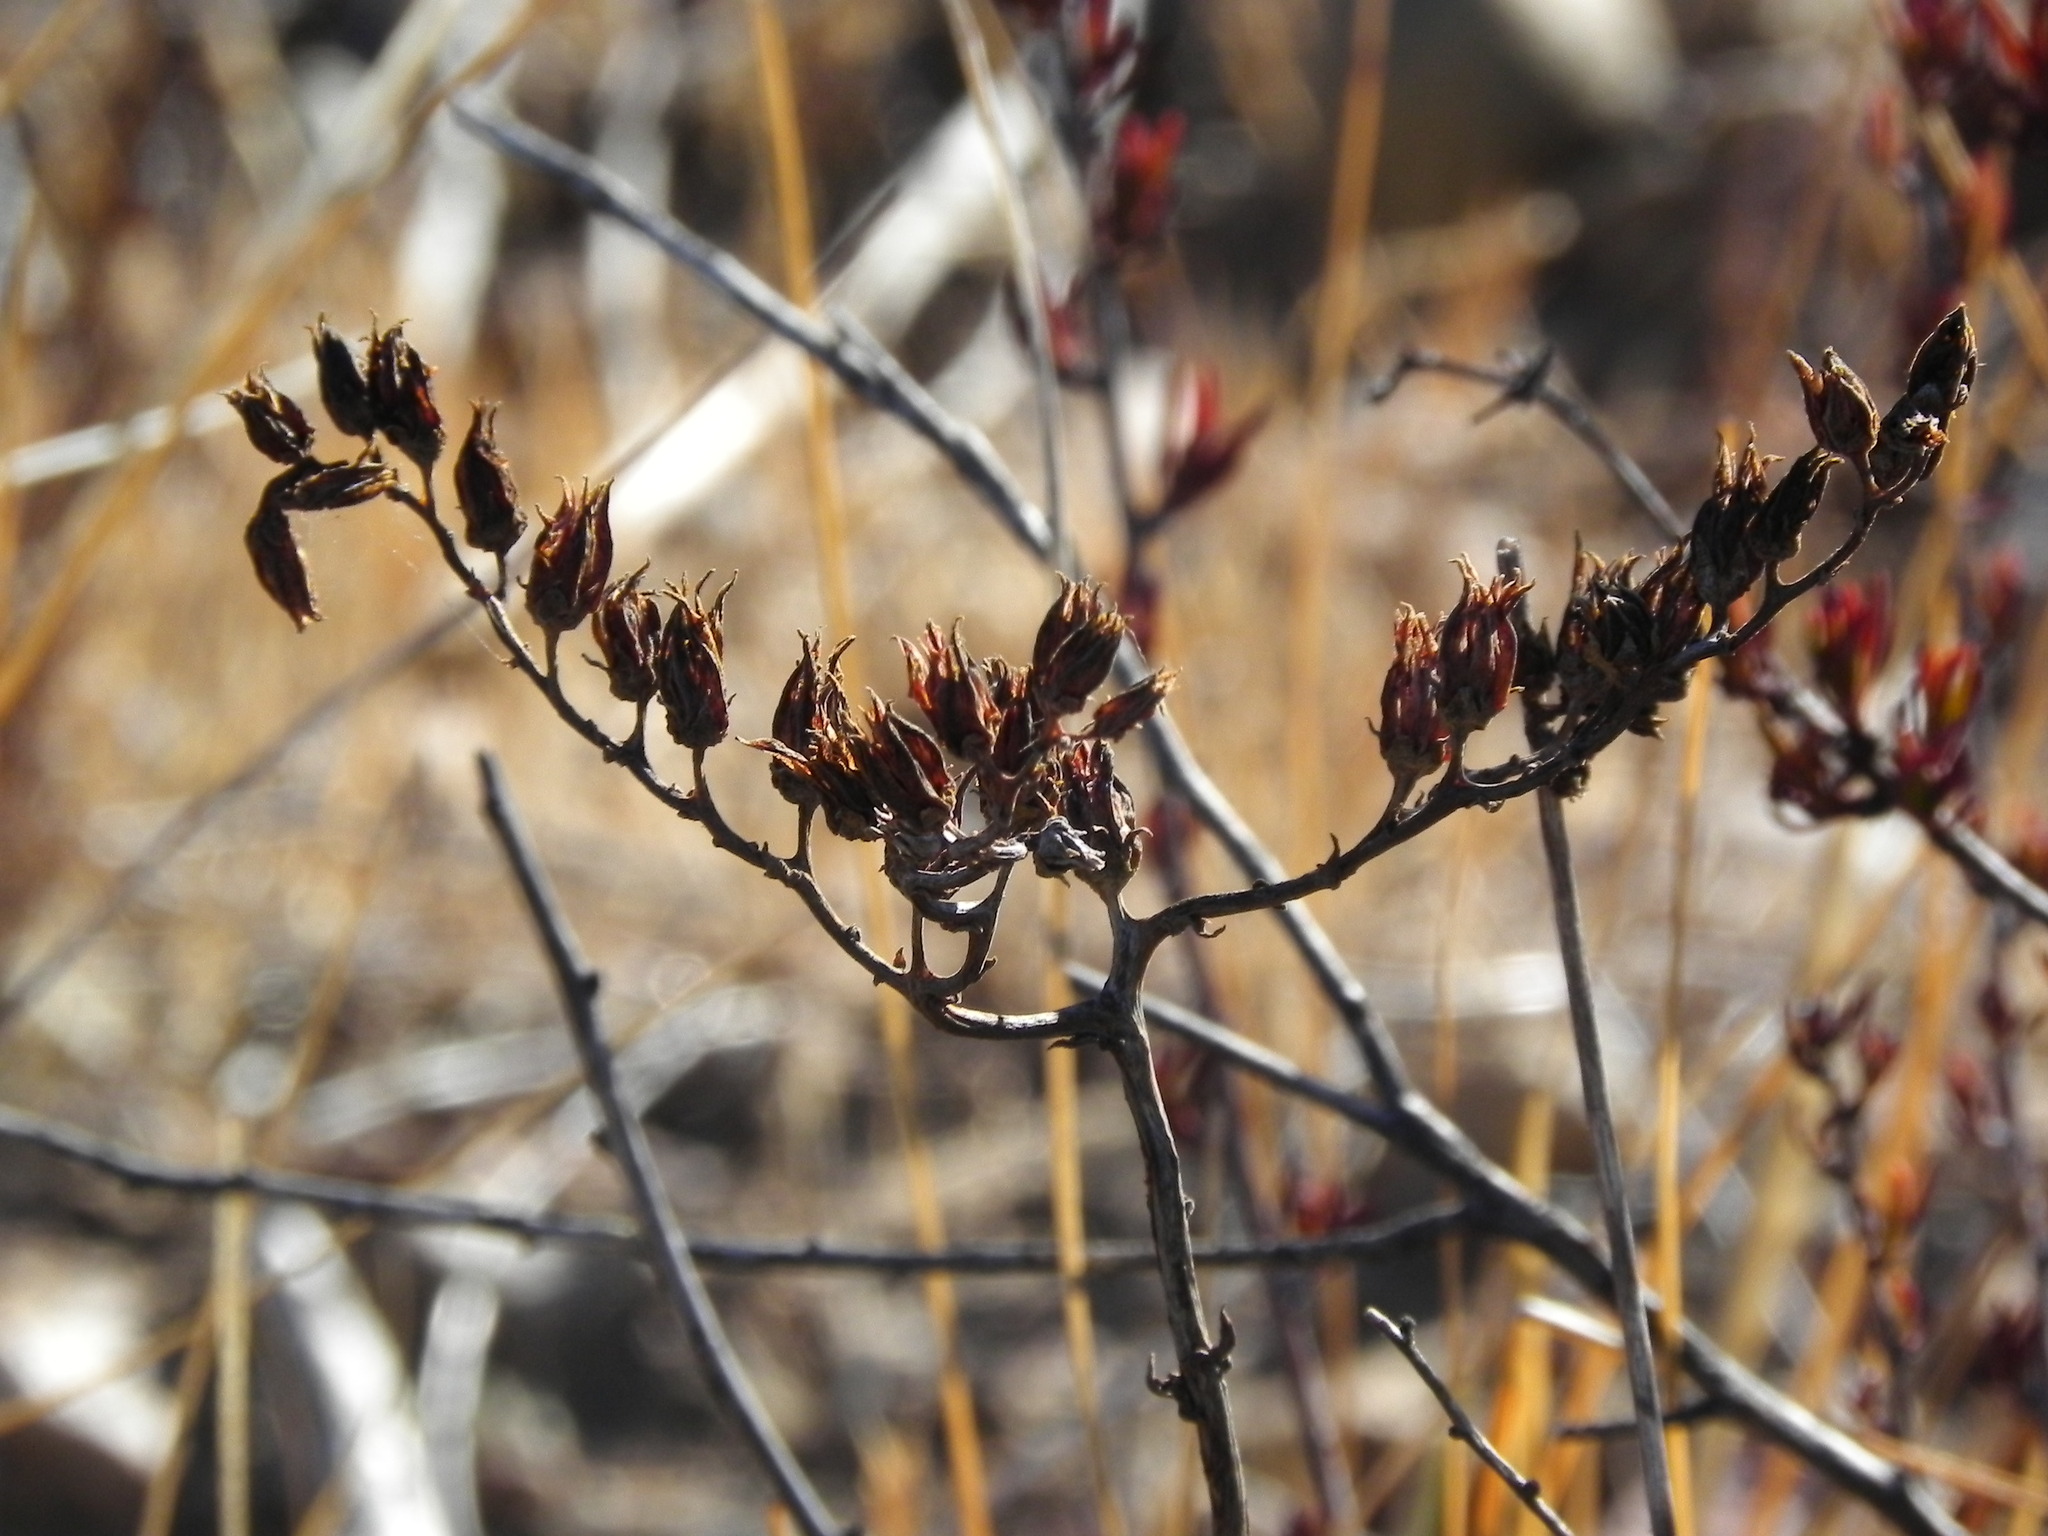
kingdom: Plantae
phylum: Tracheophyta
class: Magnoliopsida
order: Saxifragales
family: Crassulaceae
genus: Dudleya
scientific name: Dudleya lanceolata
